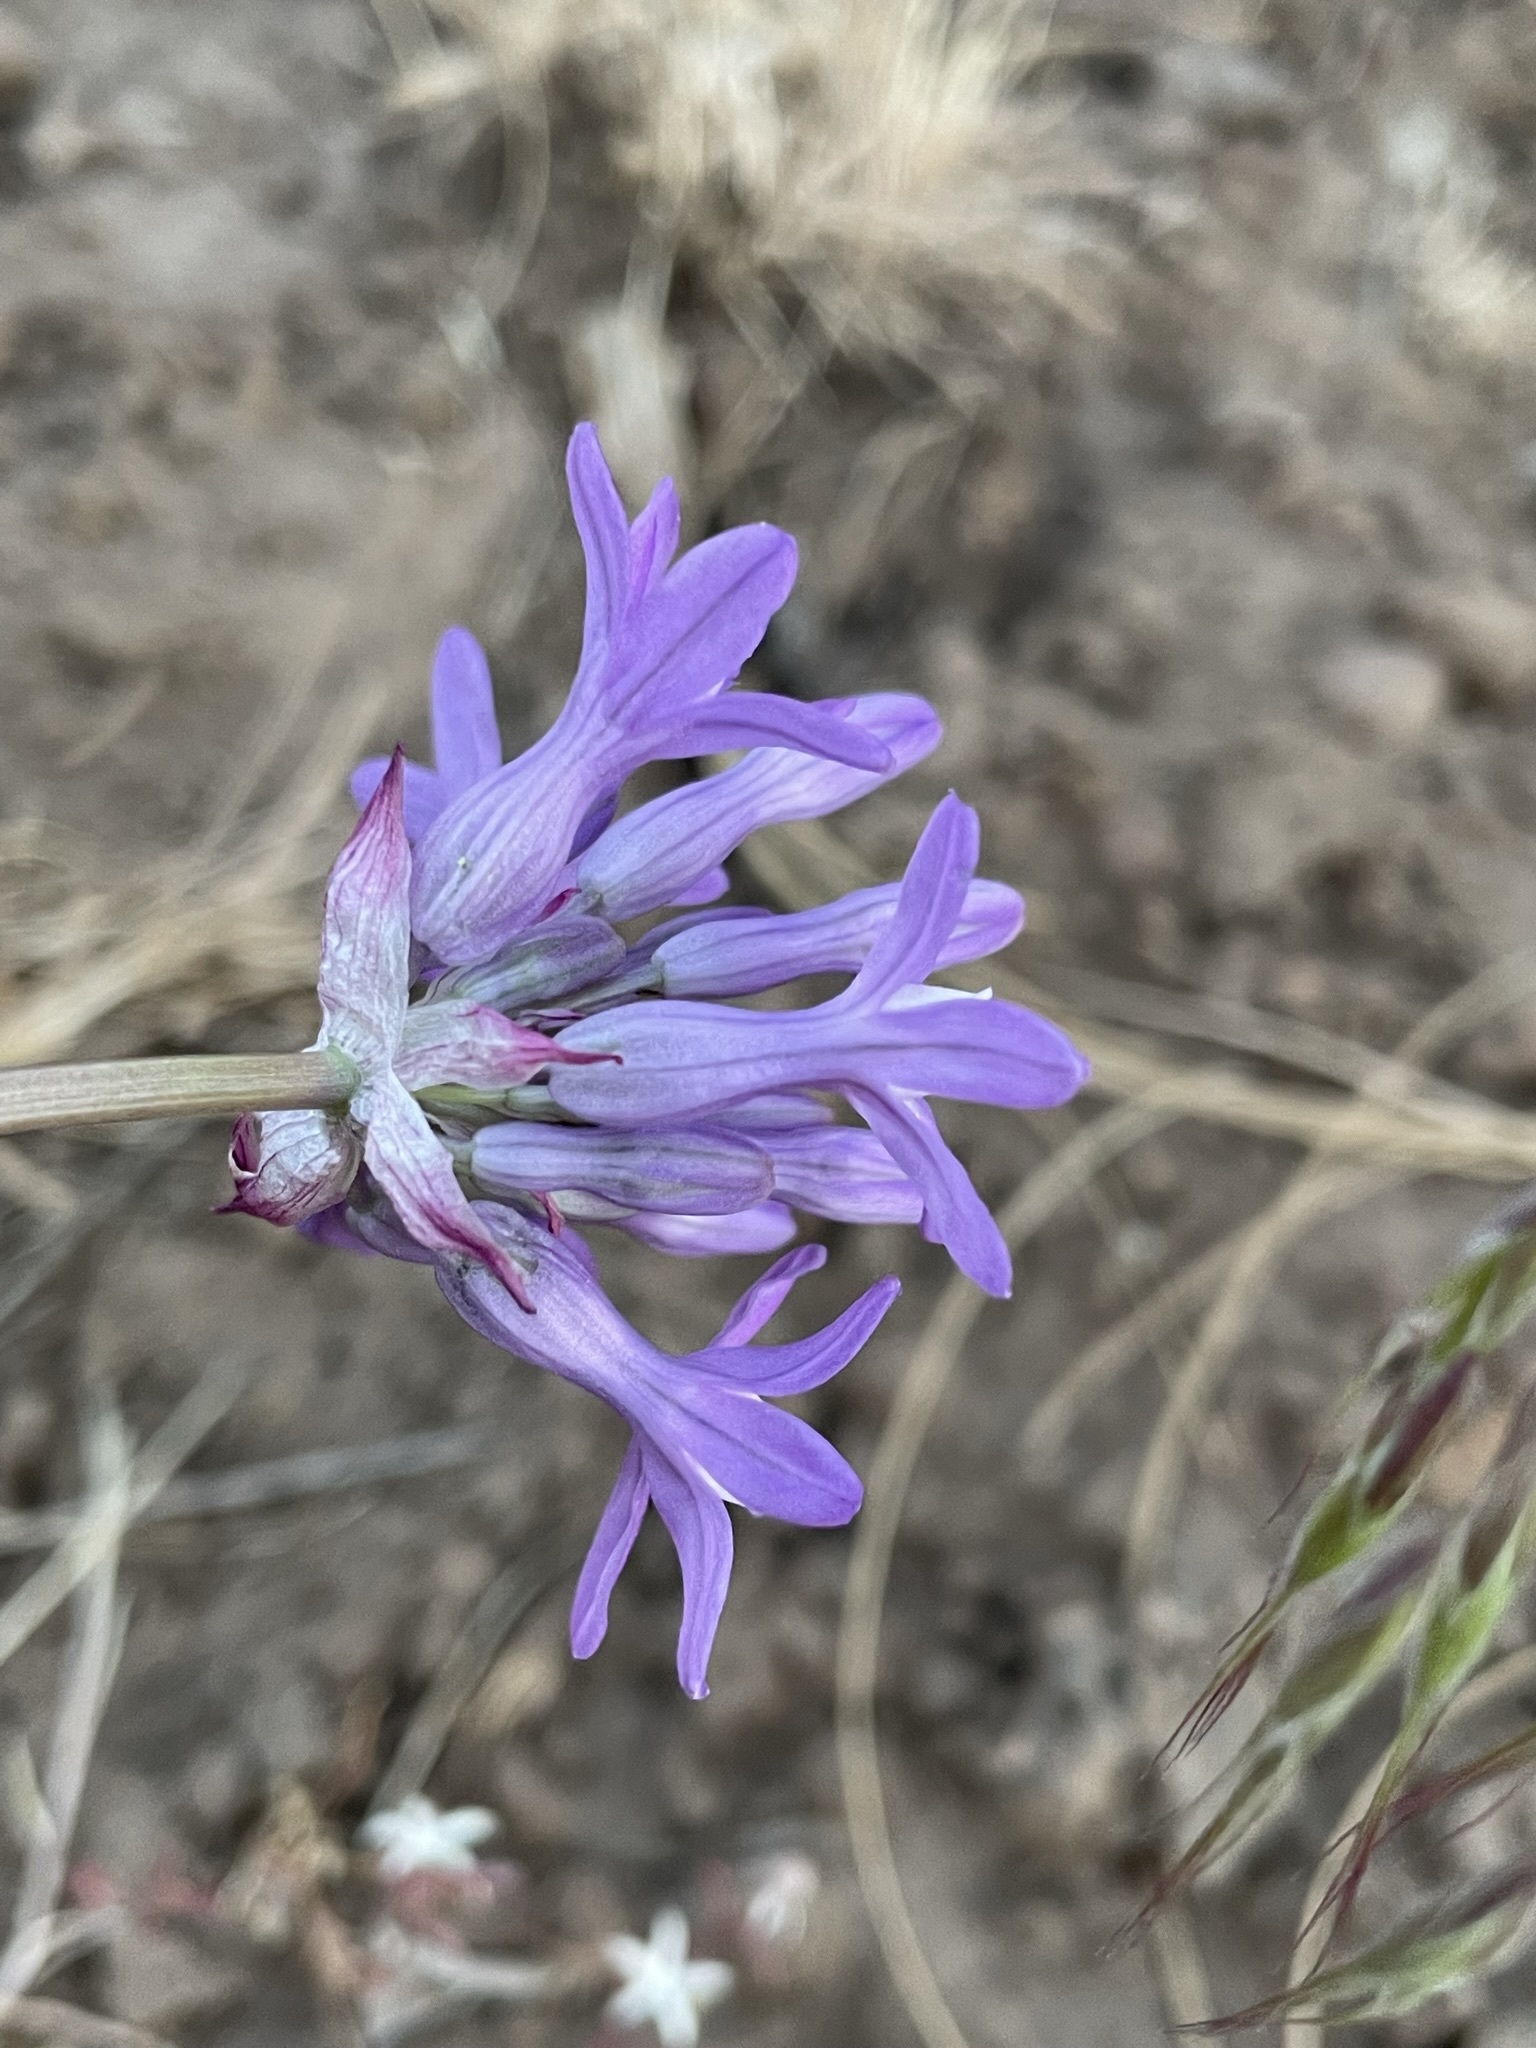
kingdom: Plantae
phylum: Tracheophyta
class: Liliopsida
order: Asparagales
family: Asparagaceae
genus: Dichelostemma
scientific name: Dichelostemma multiflorum
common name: Round-tooth ookow
